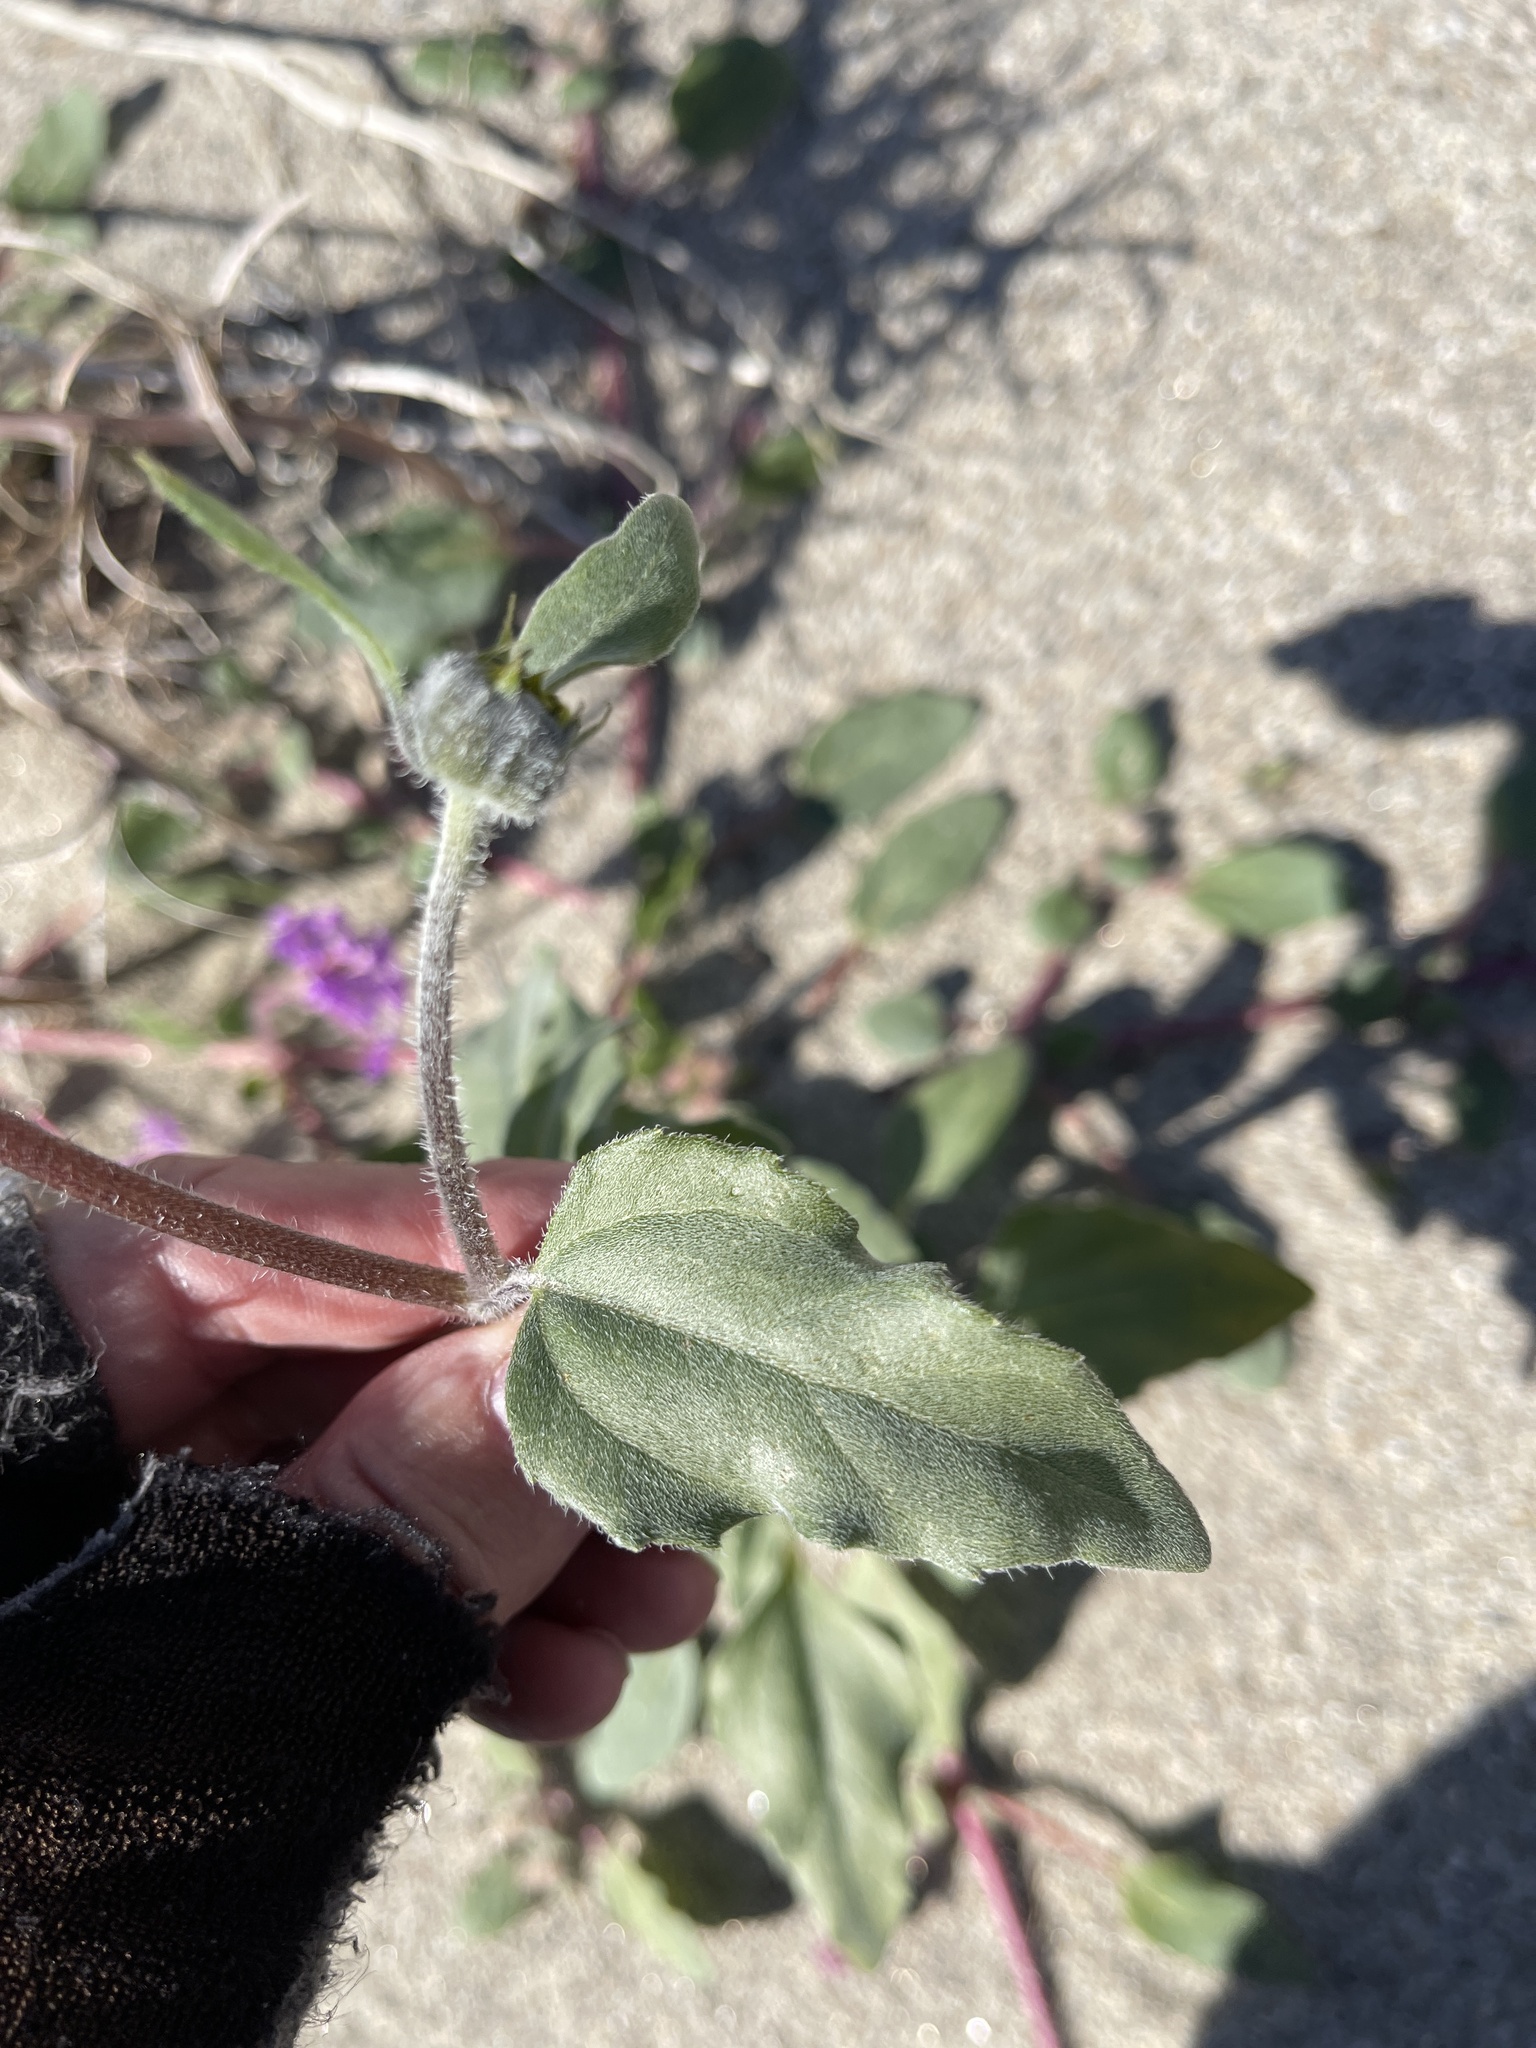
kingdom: Plantae
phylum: Tracheophyta
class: Magnoliopsida
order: Asterales
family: Asteraceae
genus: Helianthus
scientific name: Helianthus petiolaris
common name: Lesser sunflower
